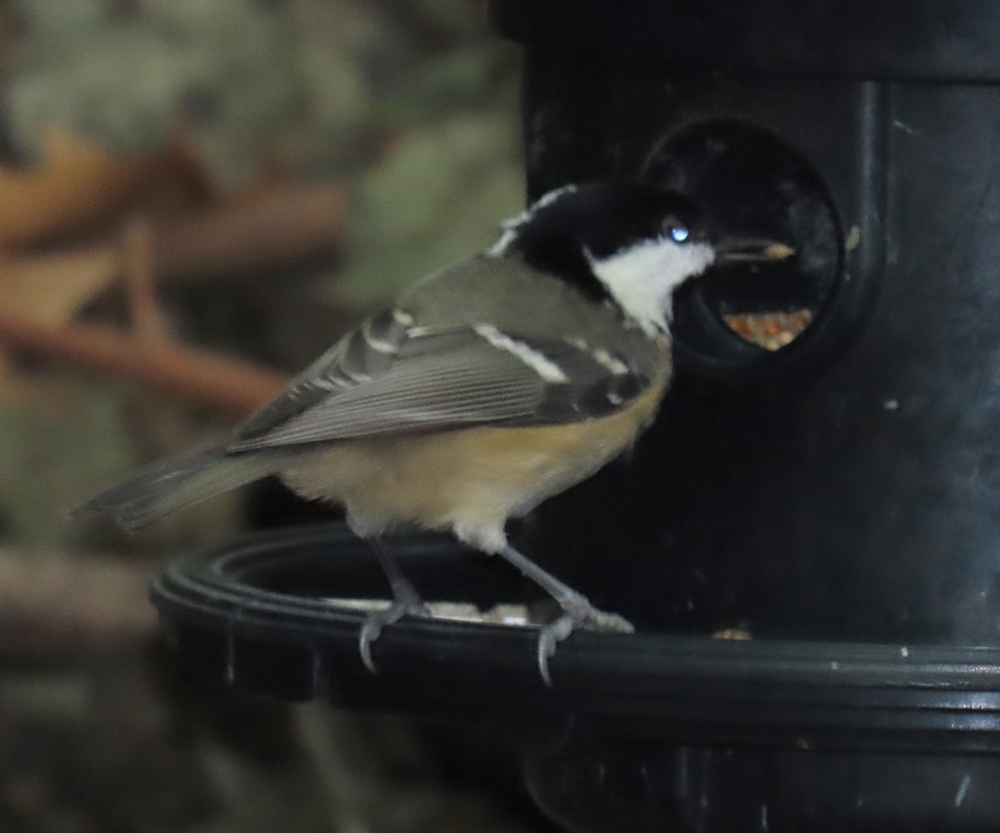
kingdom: Animalia
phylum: Chordata
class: Aves
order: Passeriformes
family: Paridae
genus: Periparus
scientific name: Periparus ater
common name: Coal tit
